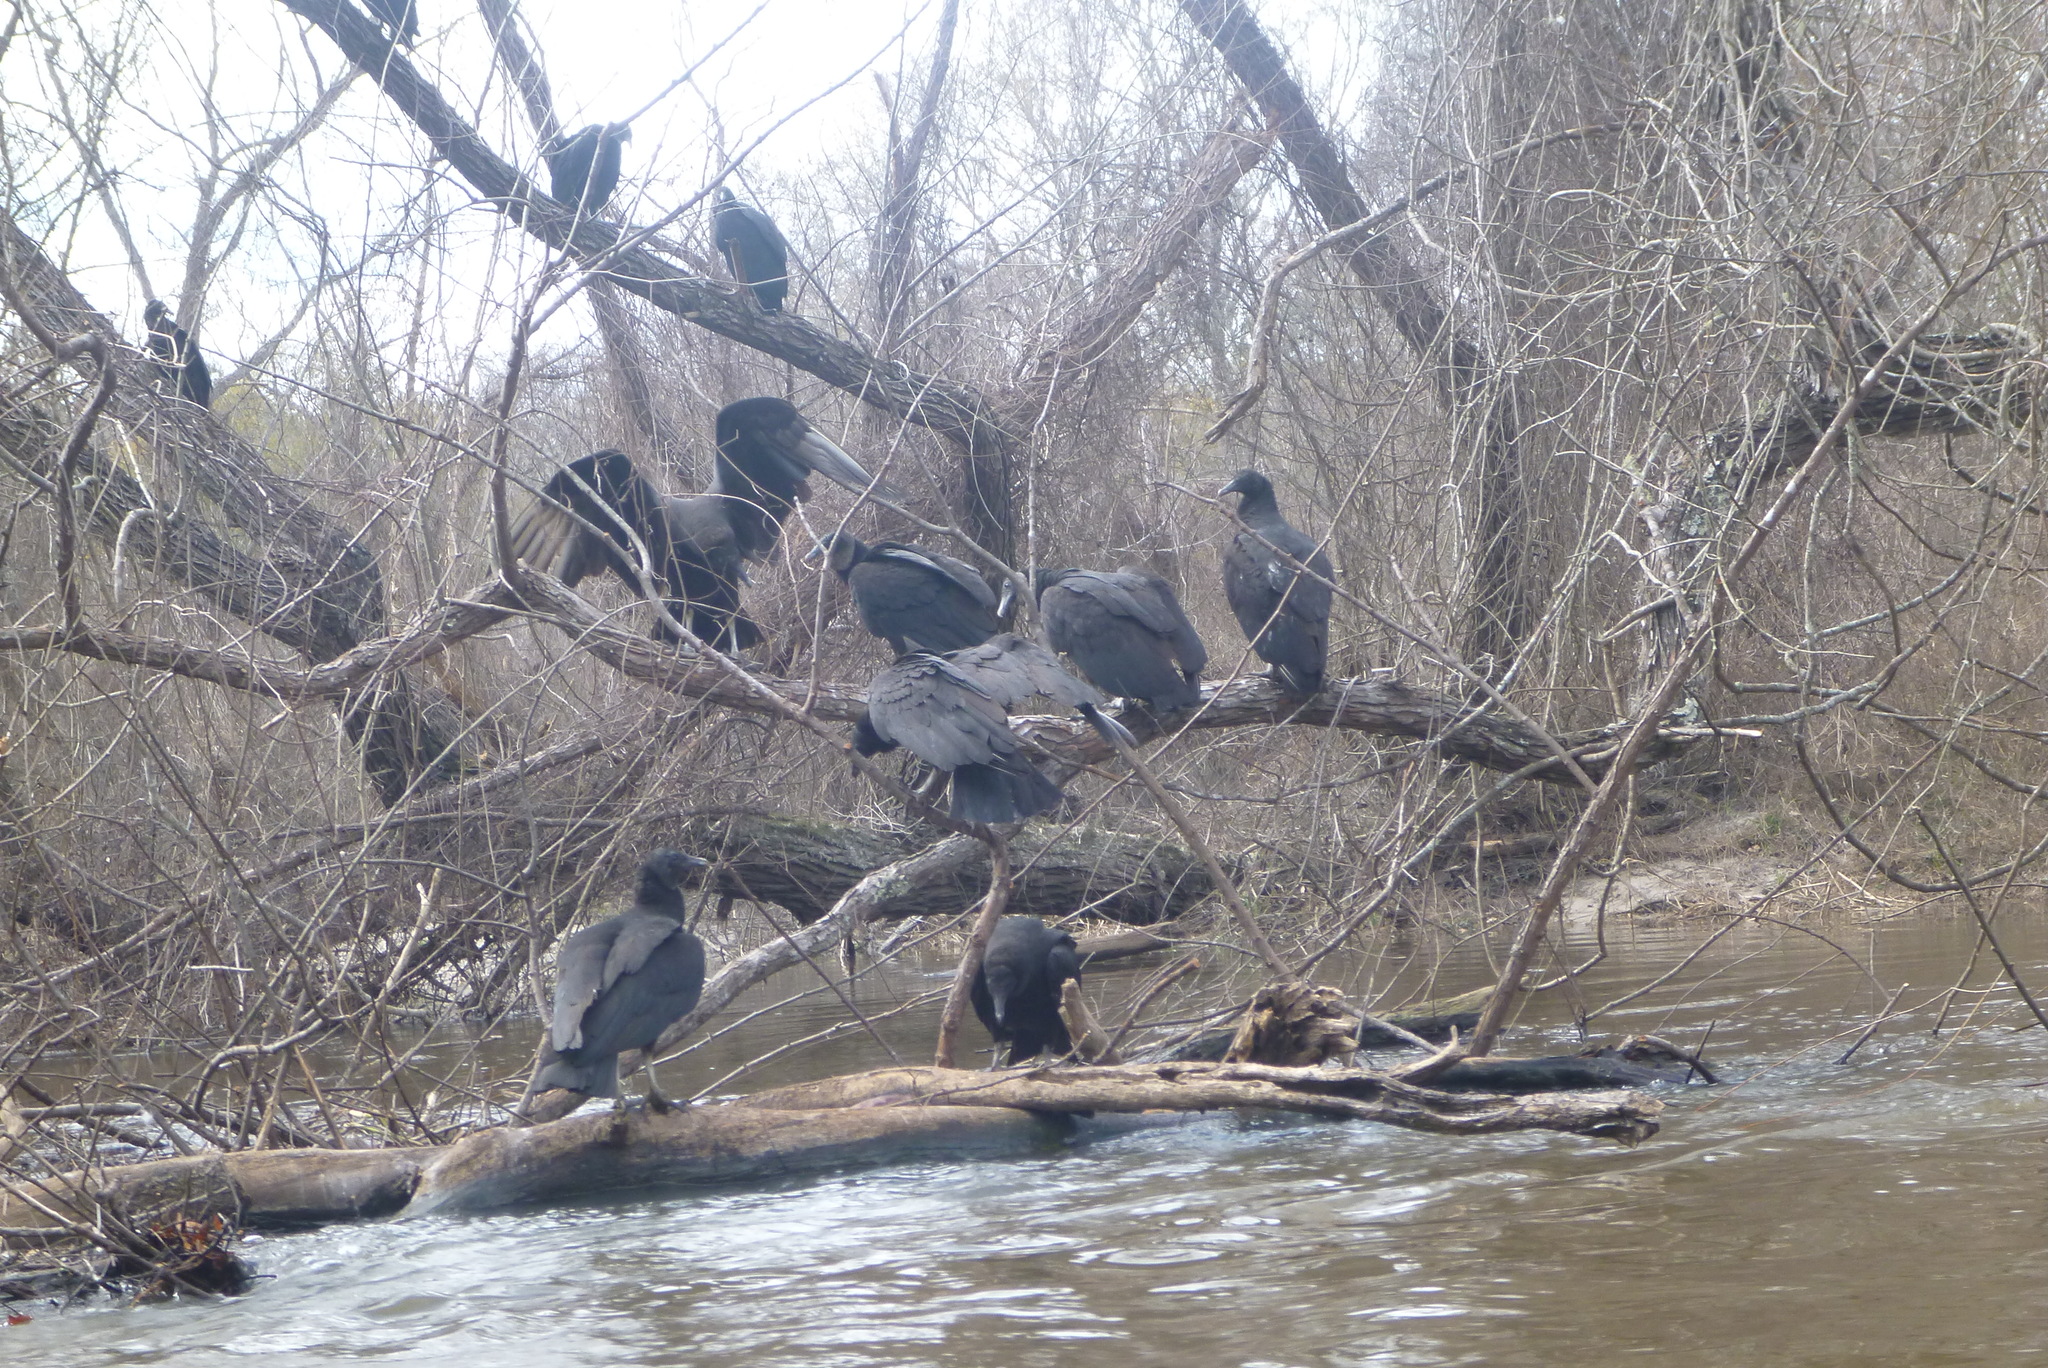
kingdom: Animalia
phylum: Chordata
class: Aves
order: Accipitriformes
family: Cathartidae
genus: Coragyps
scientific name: Coragyps atratus
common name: Black vulture
